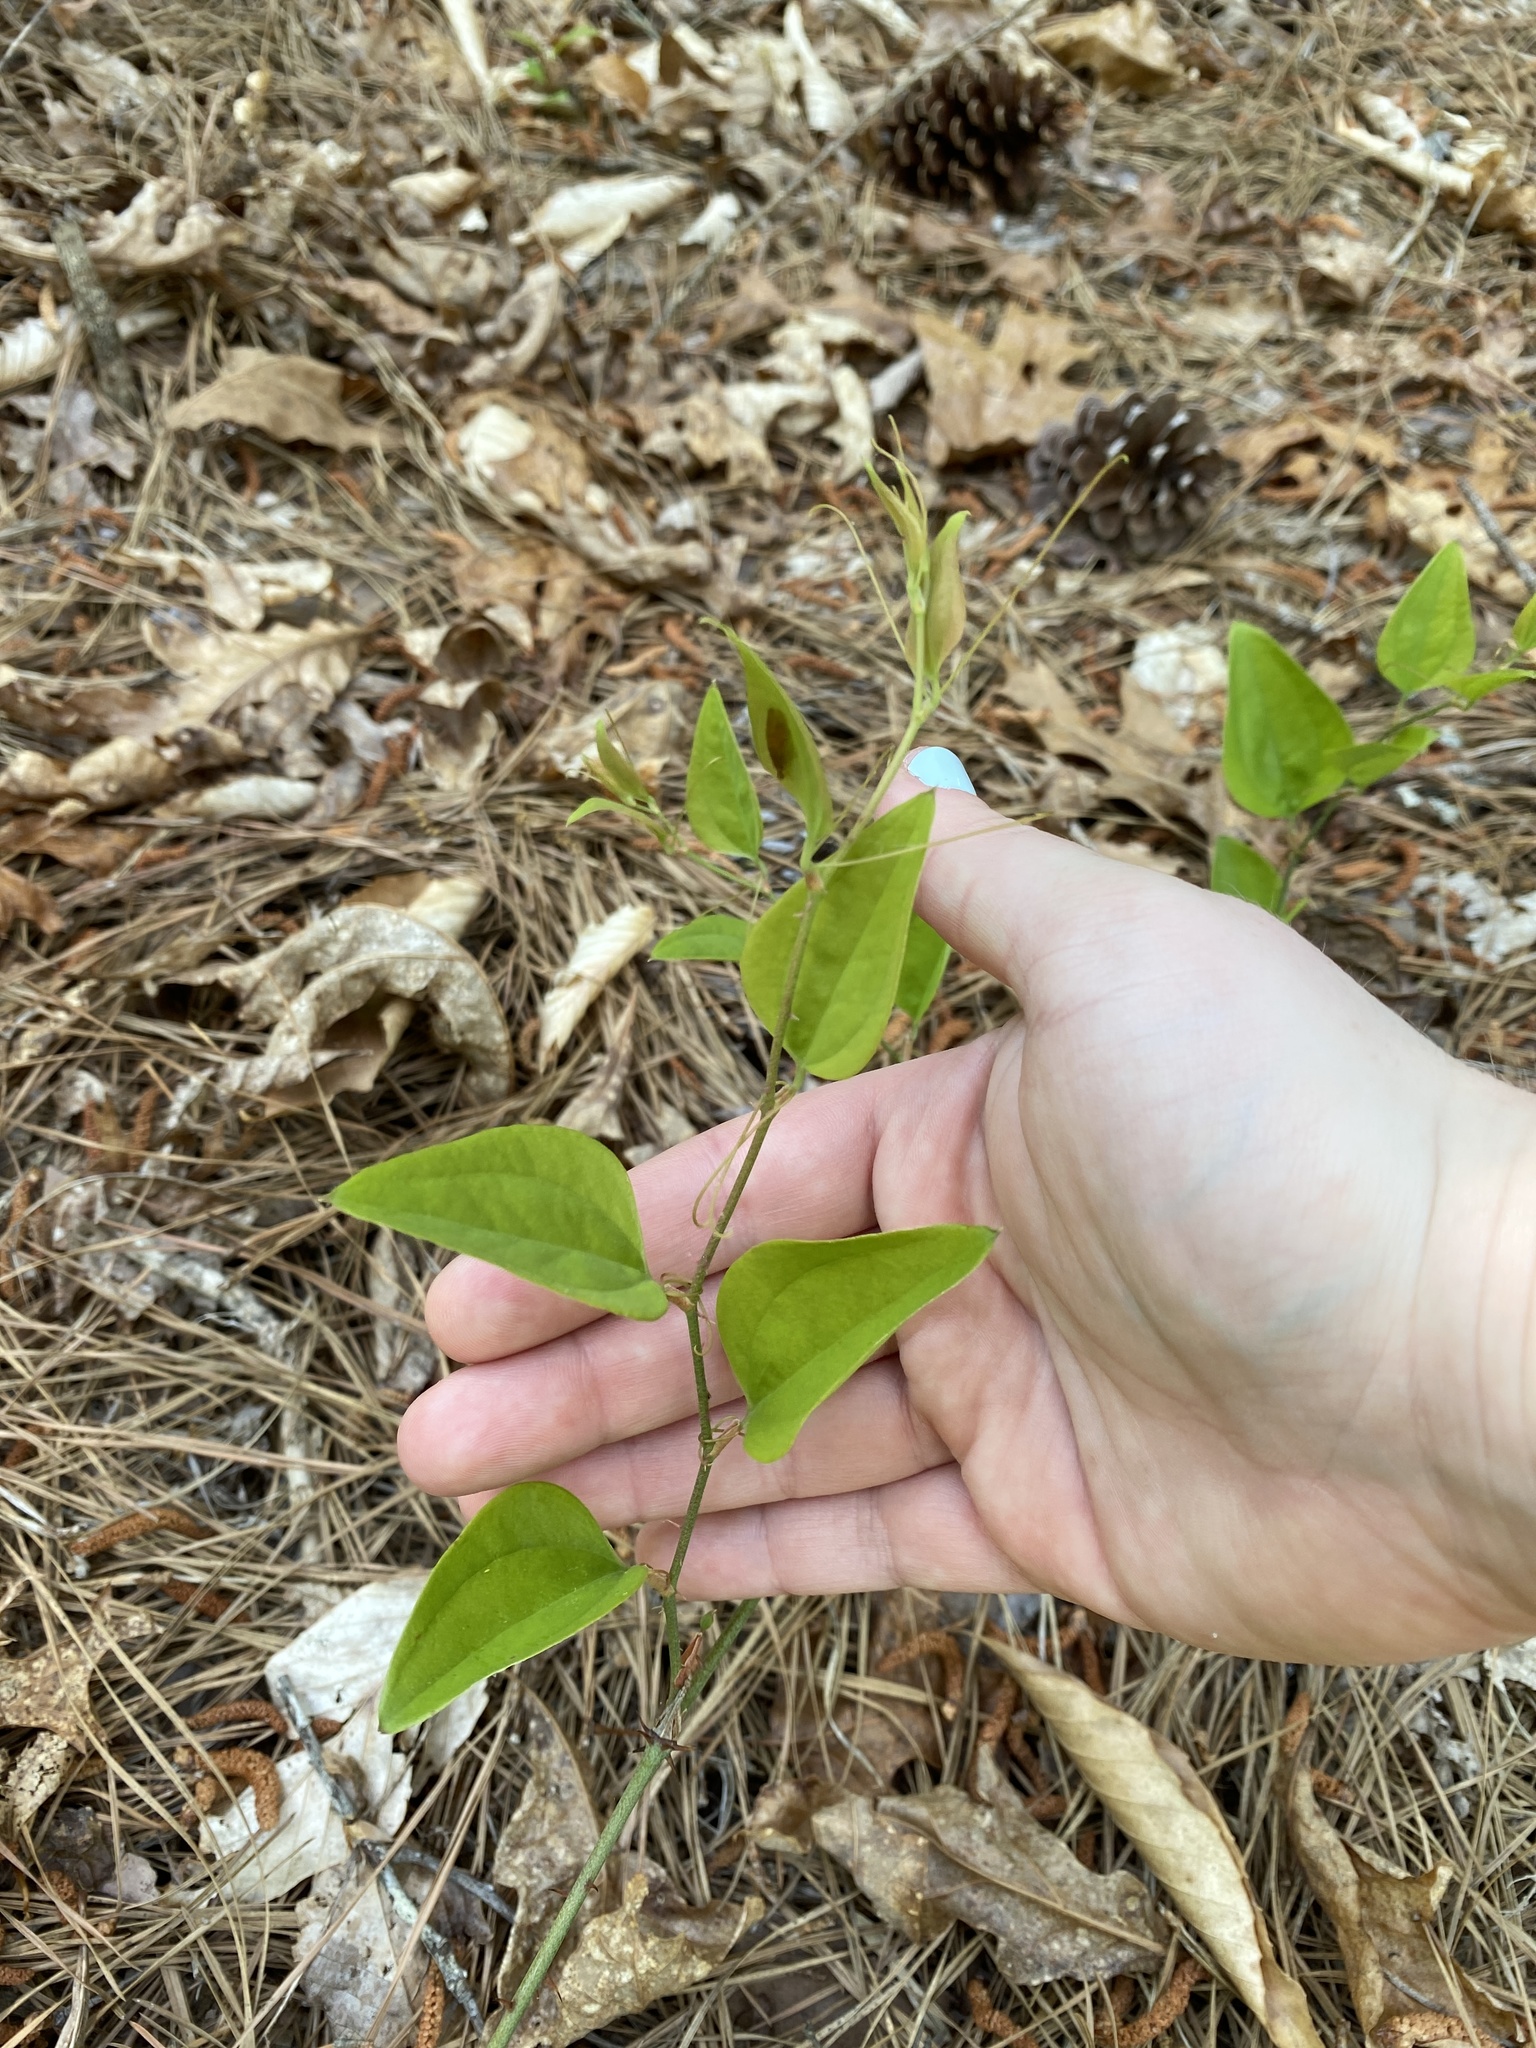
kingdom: Plantae
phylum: Tracheophyta
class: Liliopsida
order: Liliales
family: Smilacaceae
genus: Smilax
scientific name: Smilax glauca
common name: Cat greenbrier
